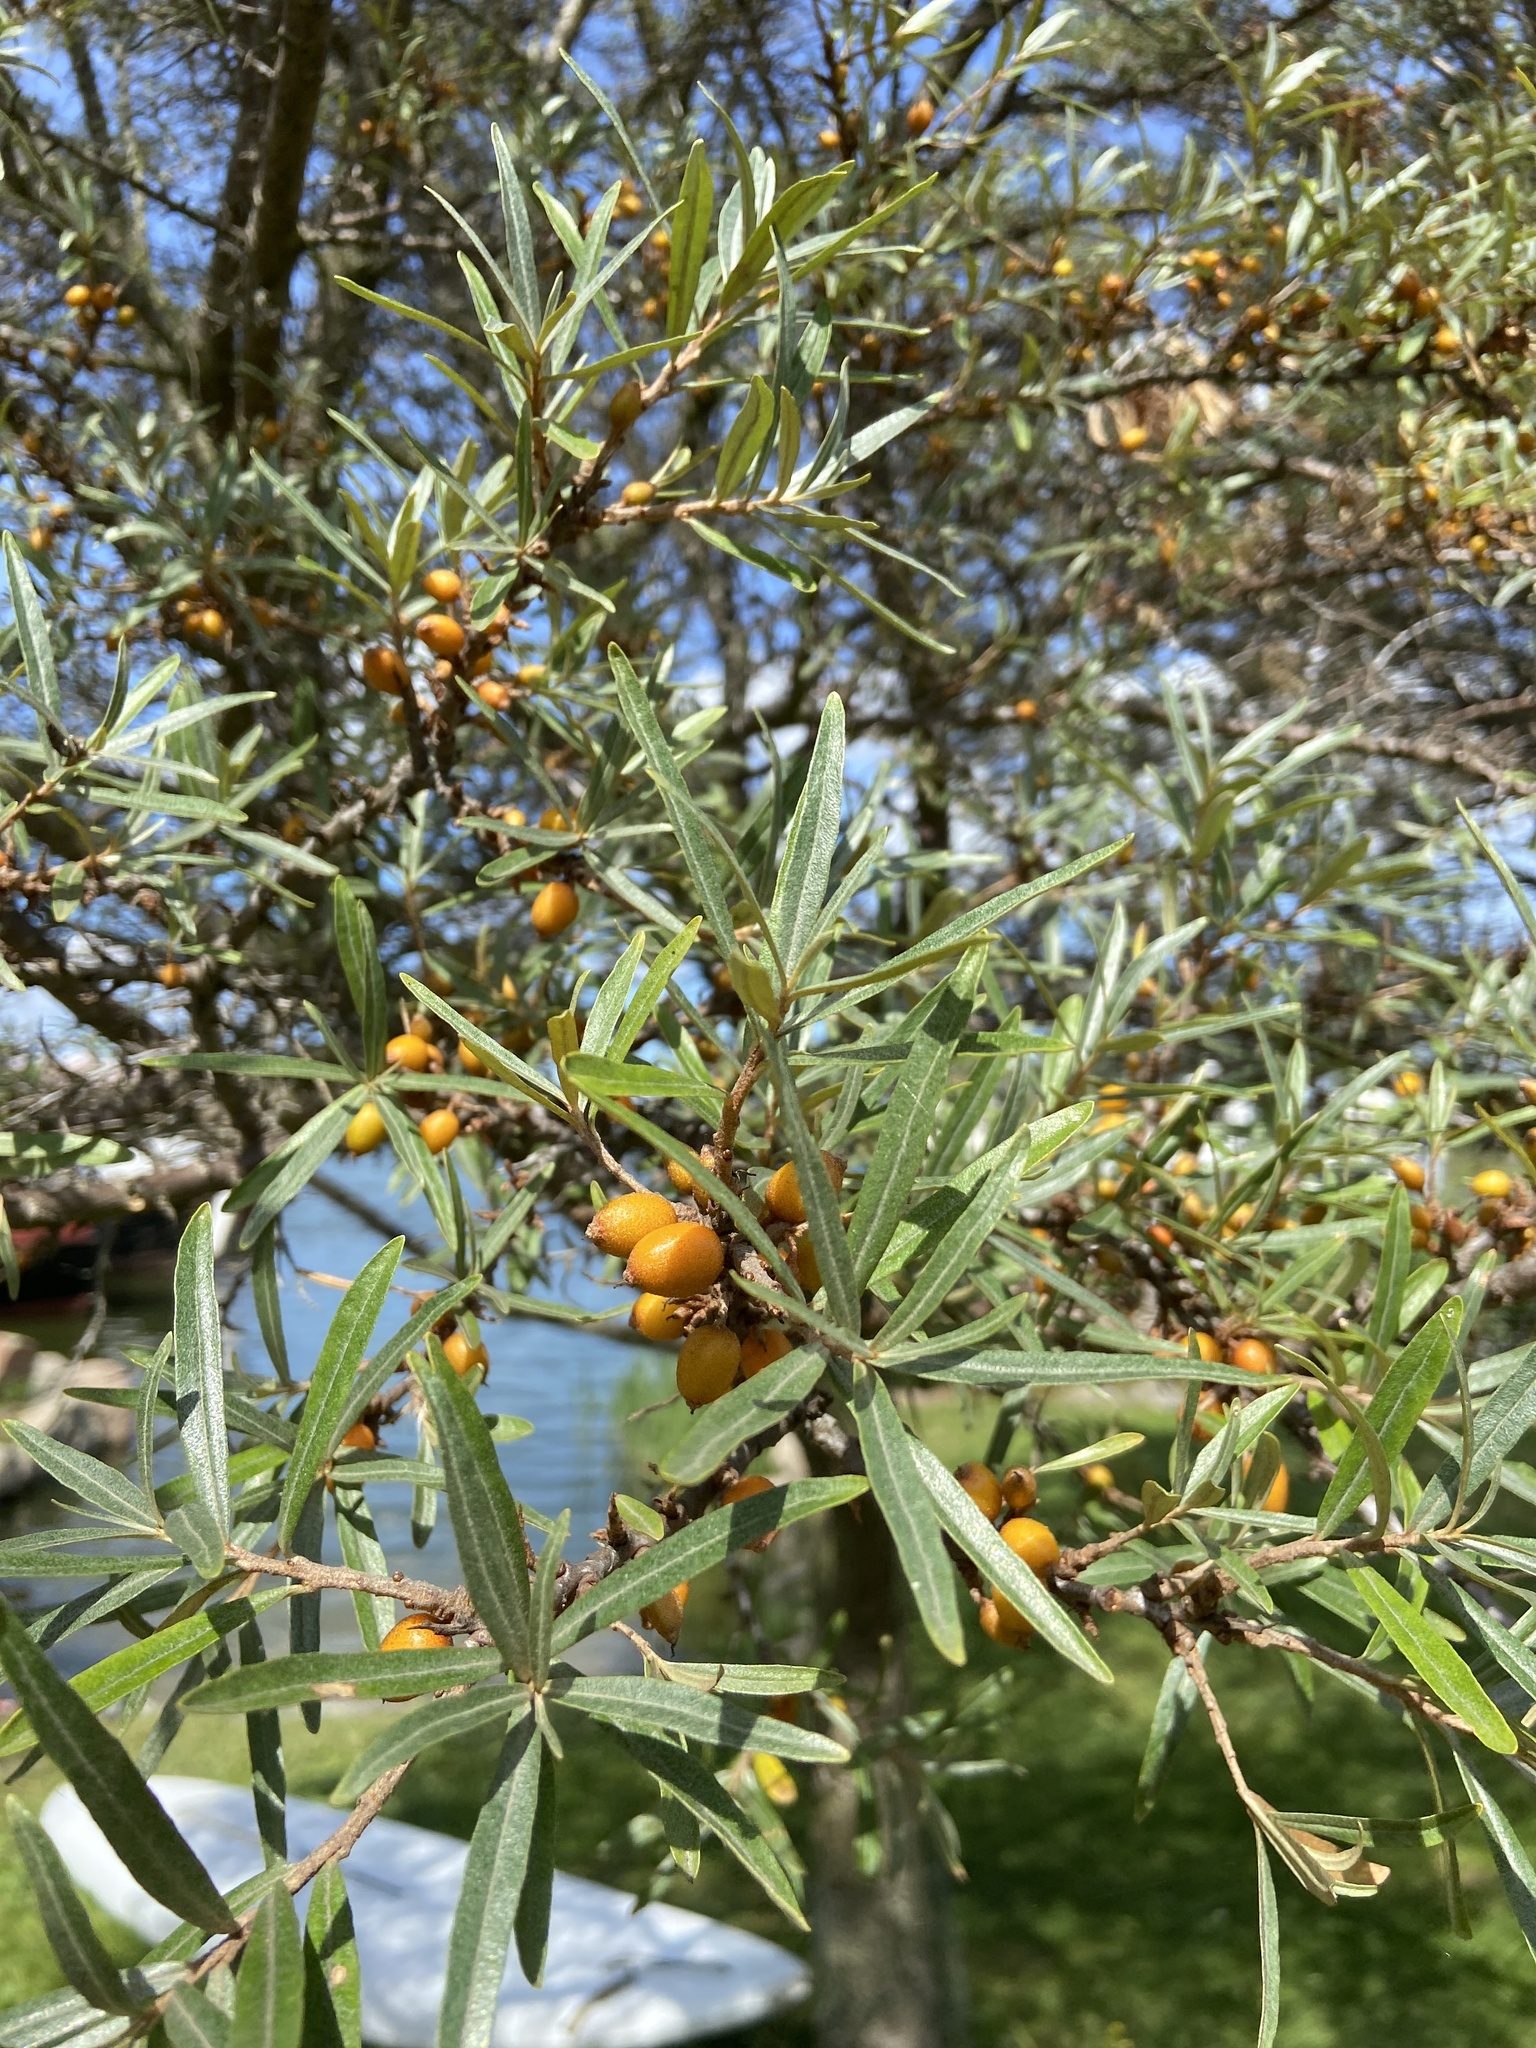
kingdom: Plantae
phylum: Tracheophyta
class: Magnoliopsida
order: Rosales
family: Elaeagnaceae
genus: Hippophae
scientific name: Hippophae rhamnoides
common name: Sea-buckthorn
